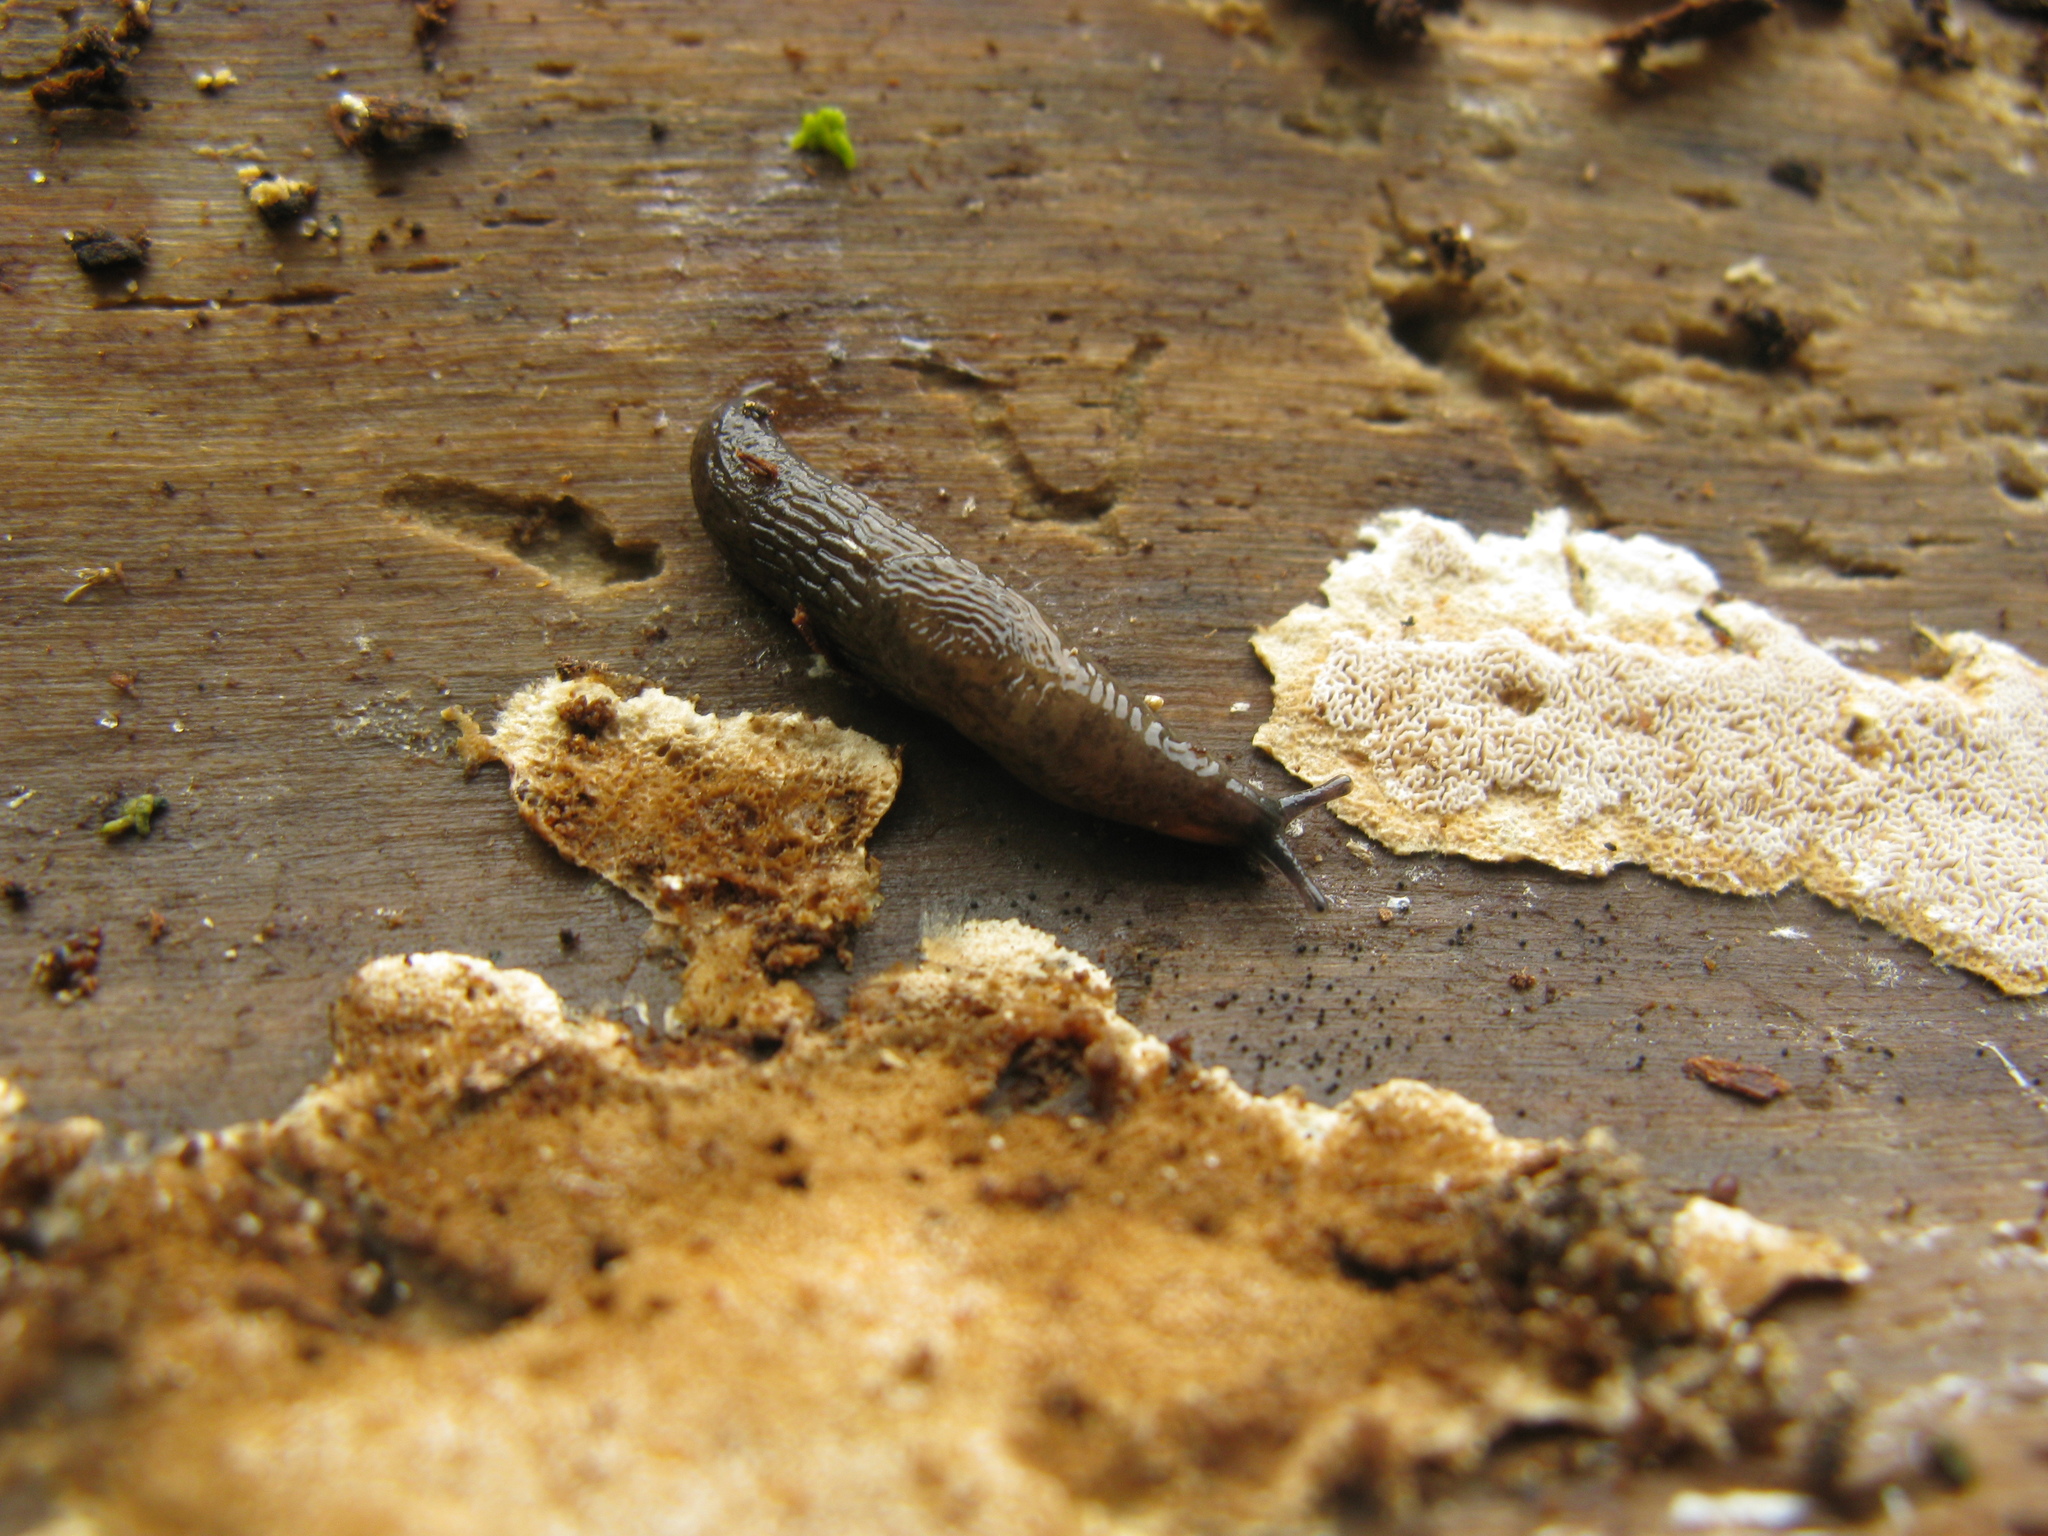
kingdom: Fungi
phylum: Basidiomycota
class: Agaricomycetes
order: Polyporales
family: Fomitopsidaceae
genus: Antrodia
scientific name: Antrodia sinuosa
